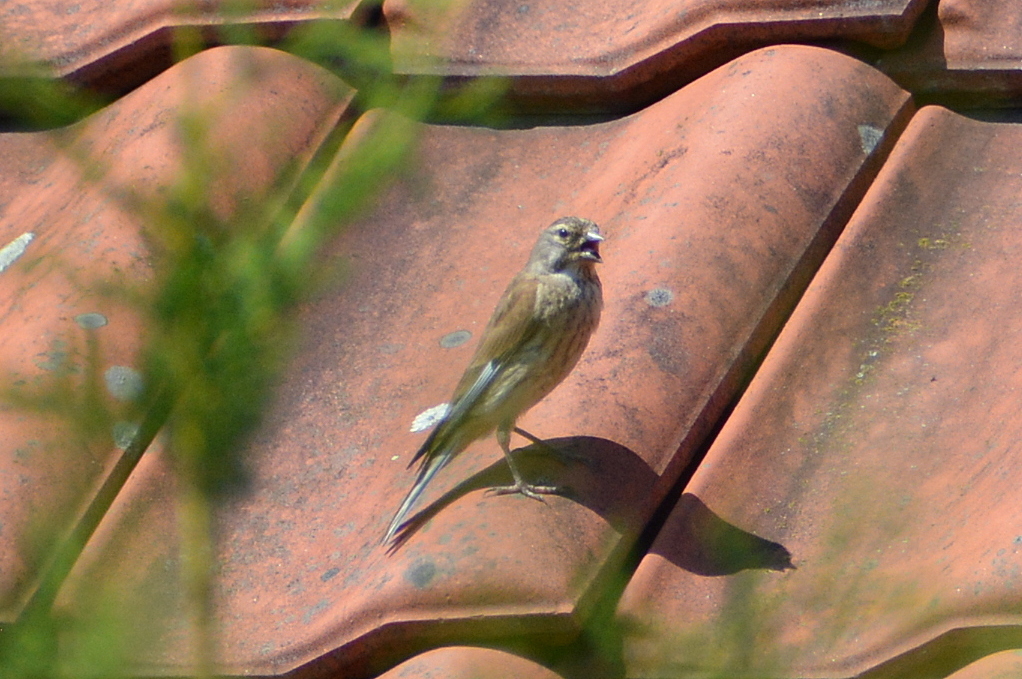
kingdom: Animalia
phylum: Chordata
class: Aves
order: Passeriformes
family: Fringillidae
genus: Linaria
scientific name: Linaria cannabina
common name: Common linnet
